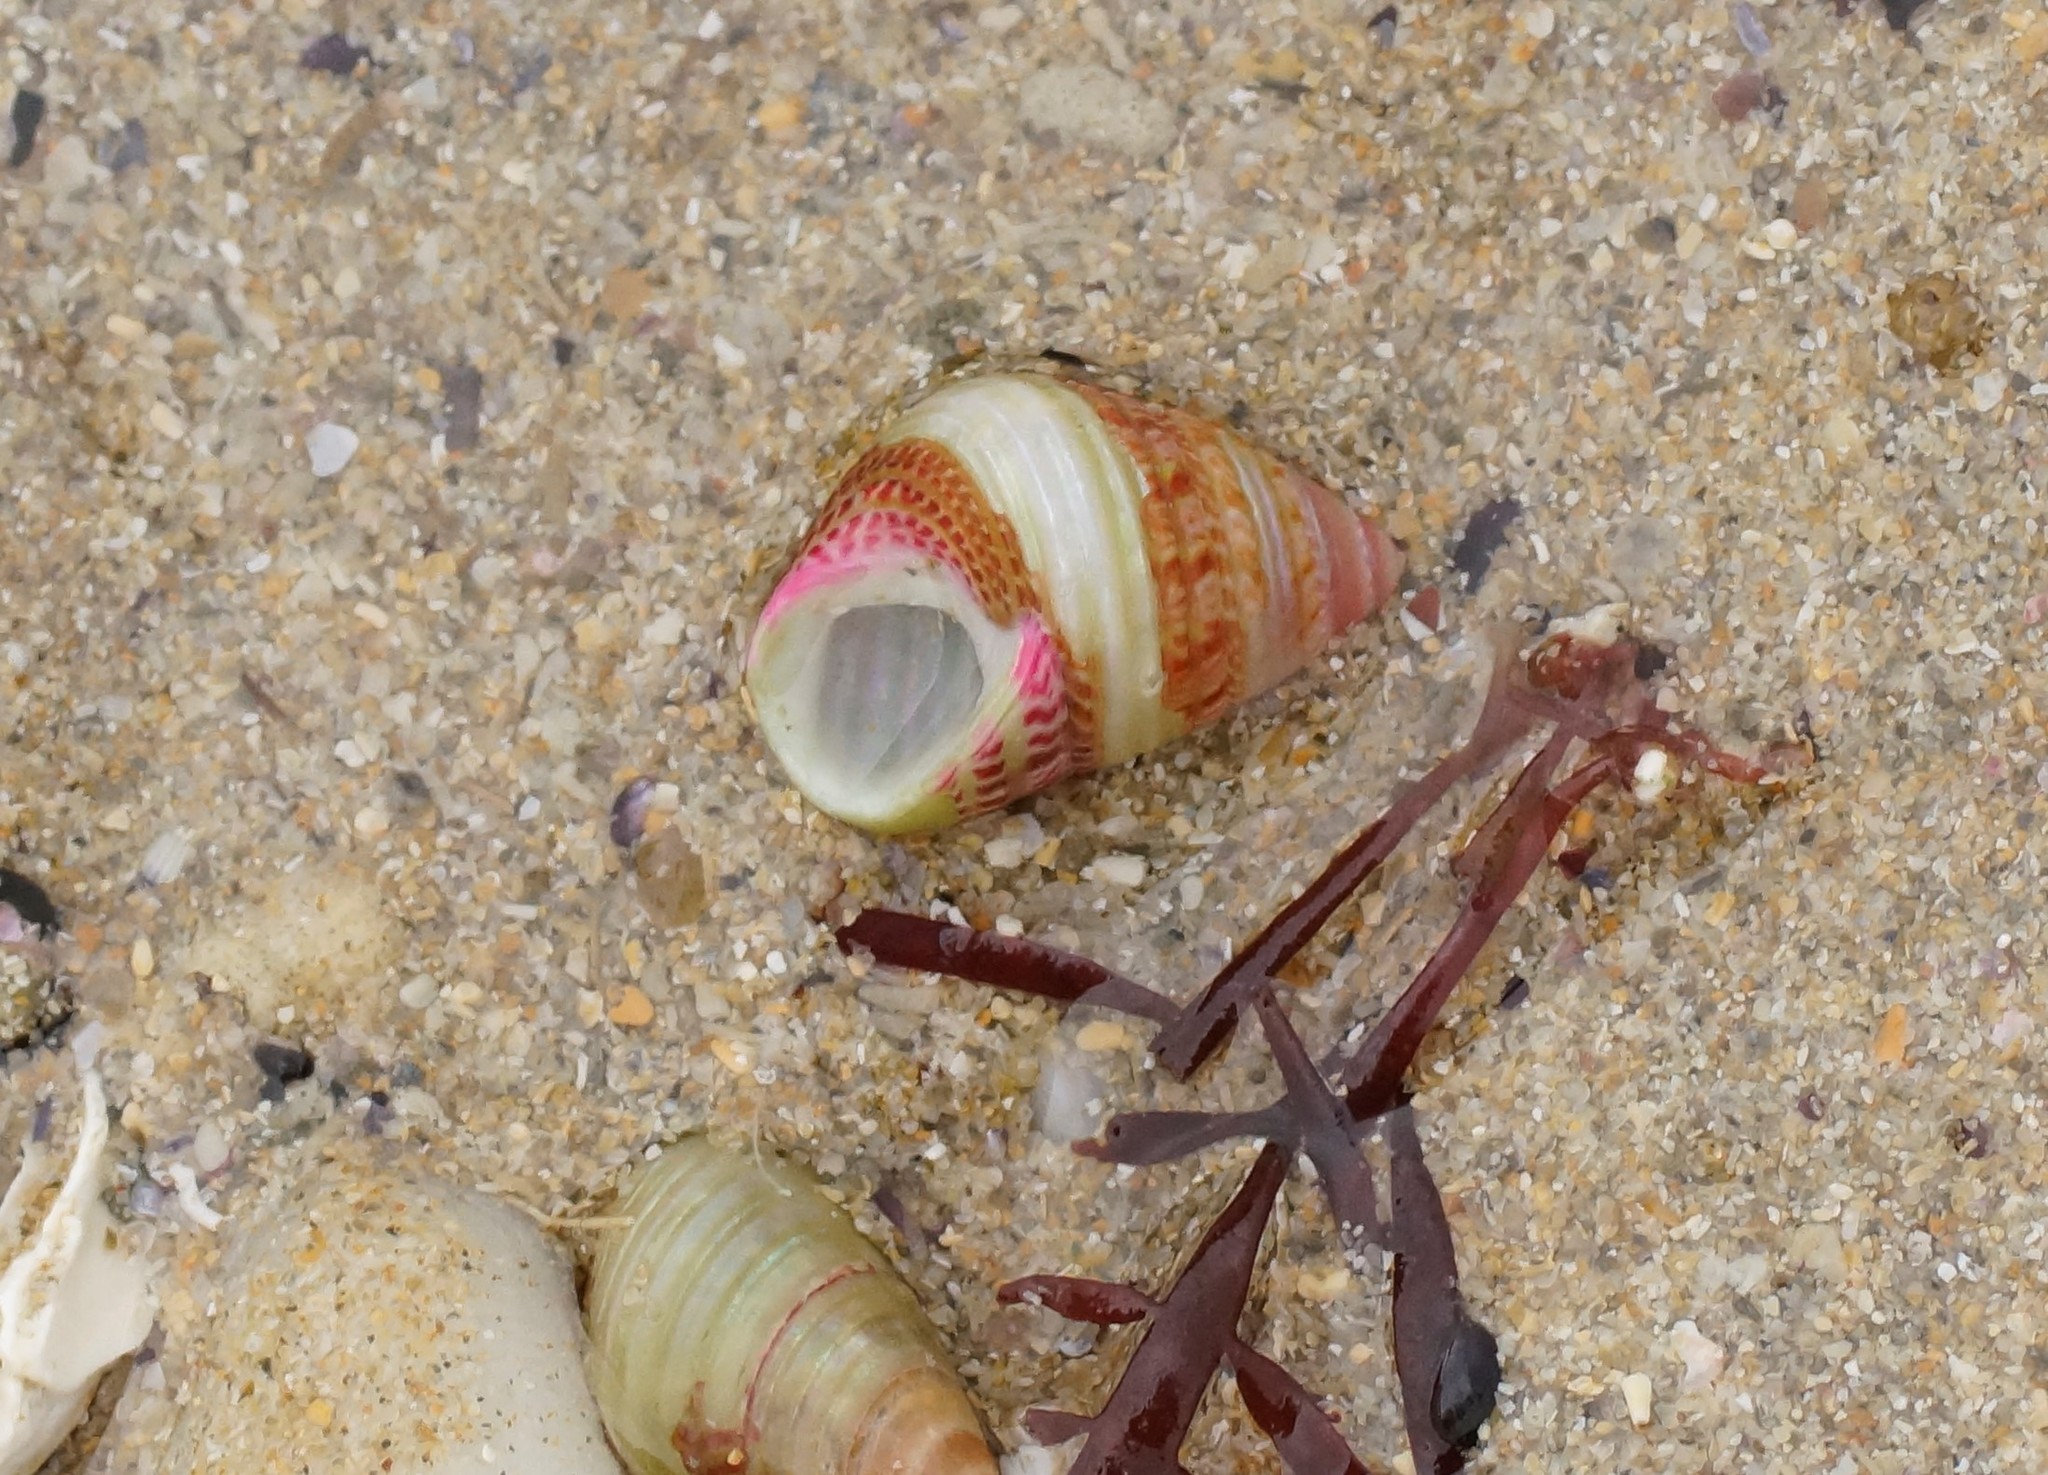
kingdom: Animalia
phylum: Mollusca
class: Gastropoda
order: Trochida
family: Trochidae
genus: Prothalotia
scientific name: Prothalotia pulcherrima
